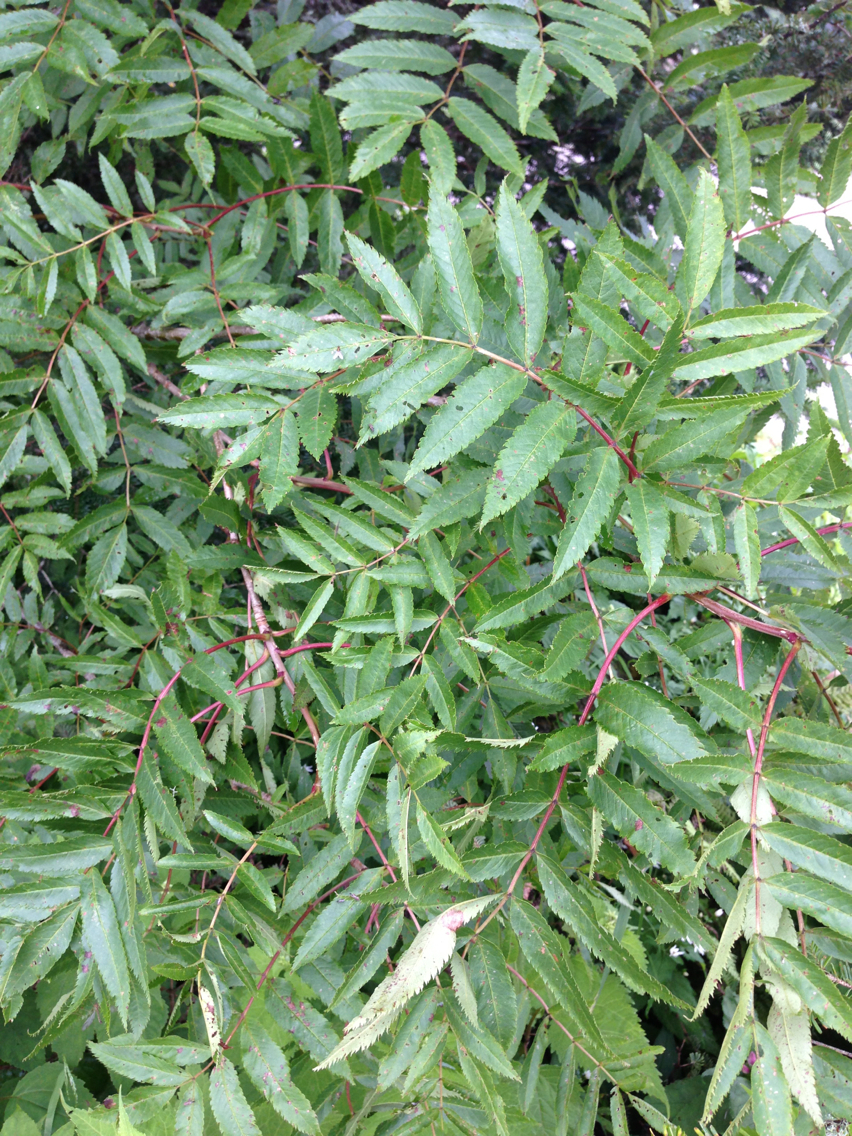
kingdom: Plantae
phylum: Tracheophyta
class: Magnoliopsida
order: Rosales
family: Rosaceae
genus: Sorbus
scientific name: Sorbus americana
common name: American mountain-ash
